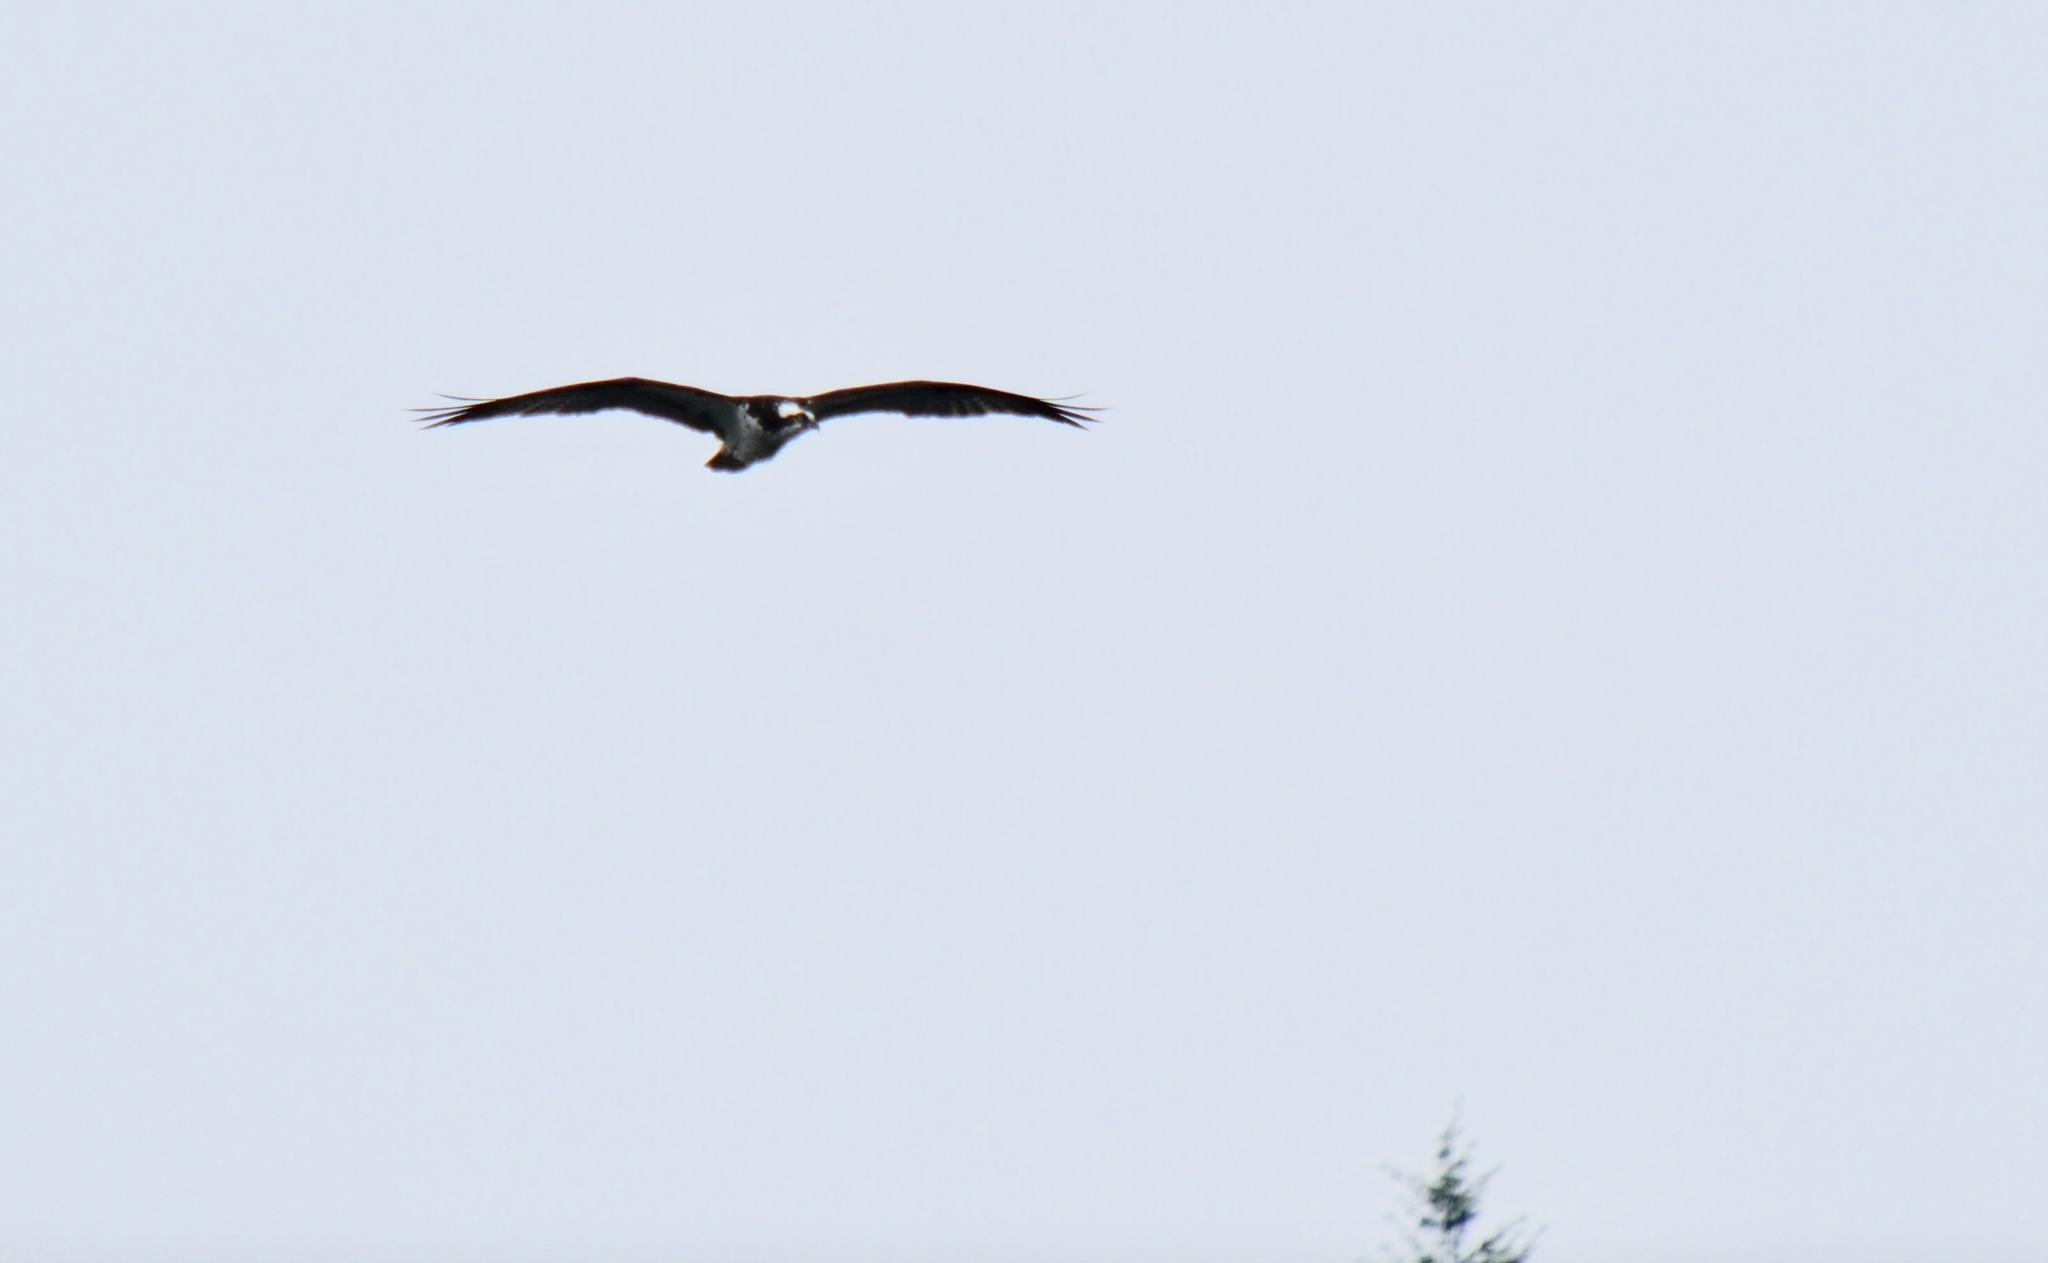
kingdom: Animalia
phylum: Chordata
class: Aves
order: Accipitriformes
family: Pandionidae
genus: Pandion
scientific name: Pandion haliaetus
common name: Osprey
